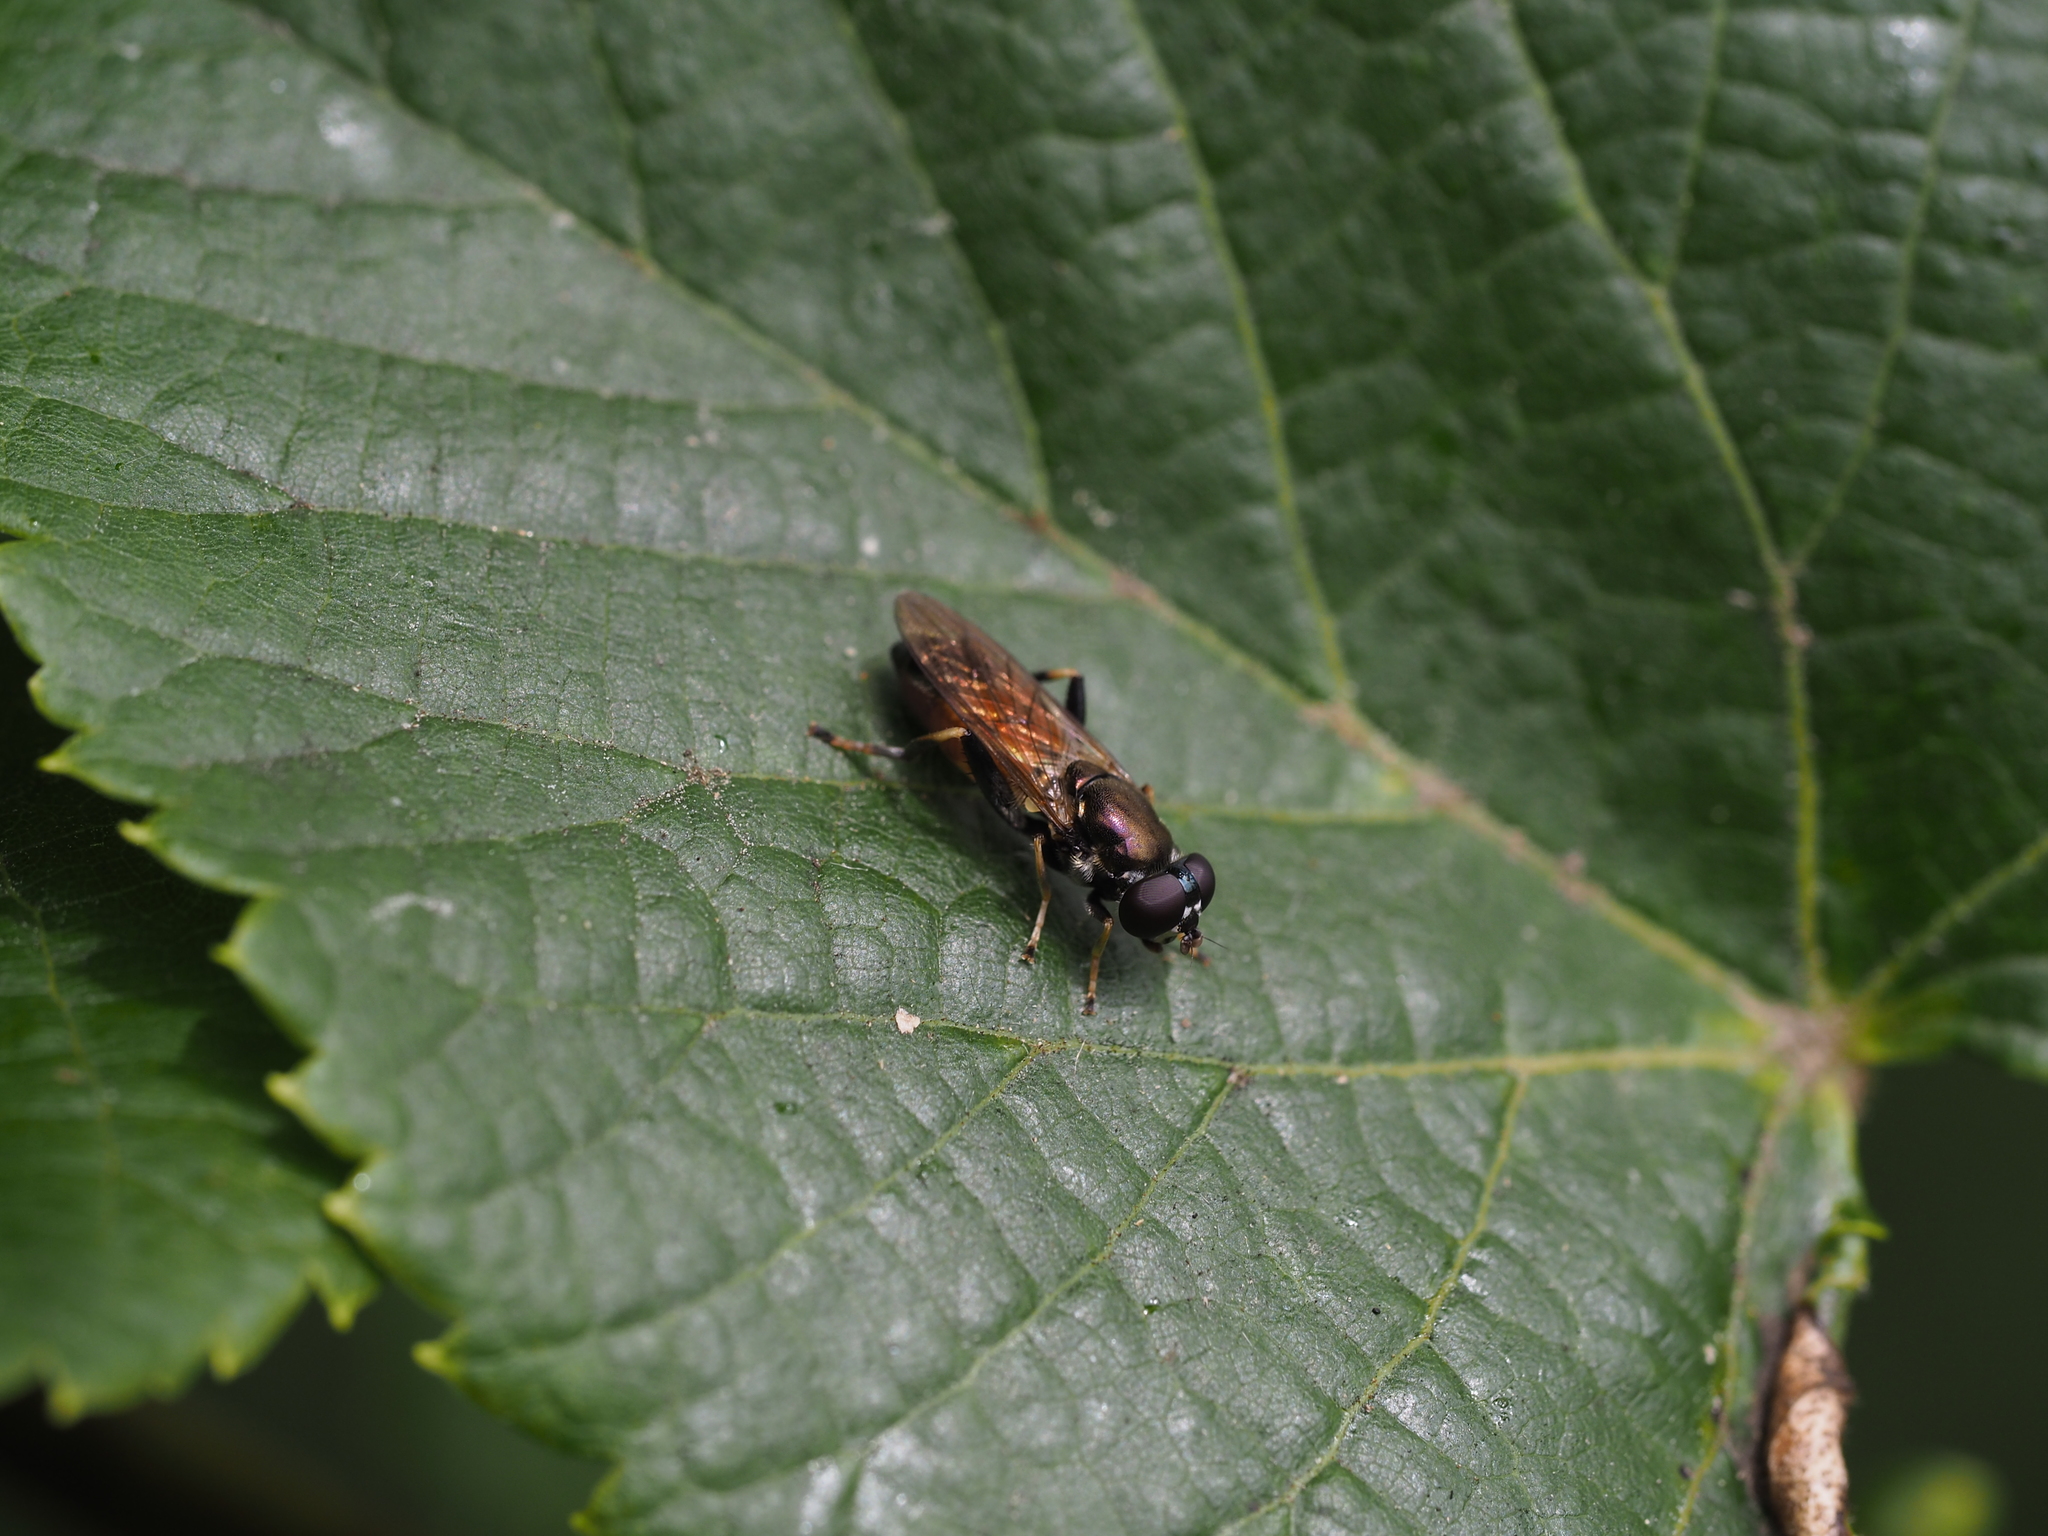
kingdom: Animalia
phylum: Arthropoda
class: Insecta
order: Diptera
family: Syrphidae
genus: Xylota
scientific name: Xylota segnis
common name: Brown-toed forest fly
